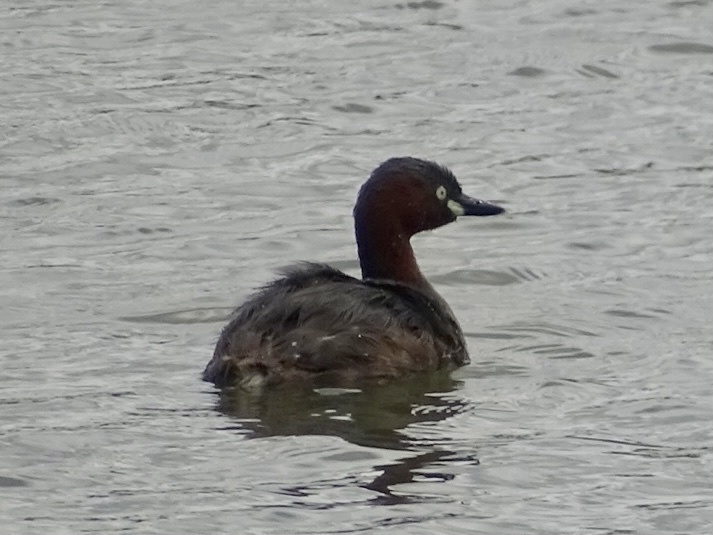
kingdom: Animalia
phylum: Chordata
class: Aves
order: Podicipediformes
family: Podicipedidae
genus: Tachybaptus
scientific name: Tachybaptus ruficollis
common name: Little grebe
